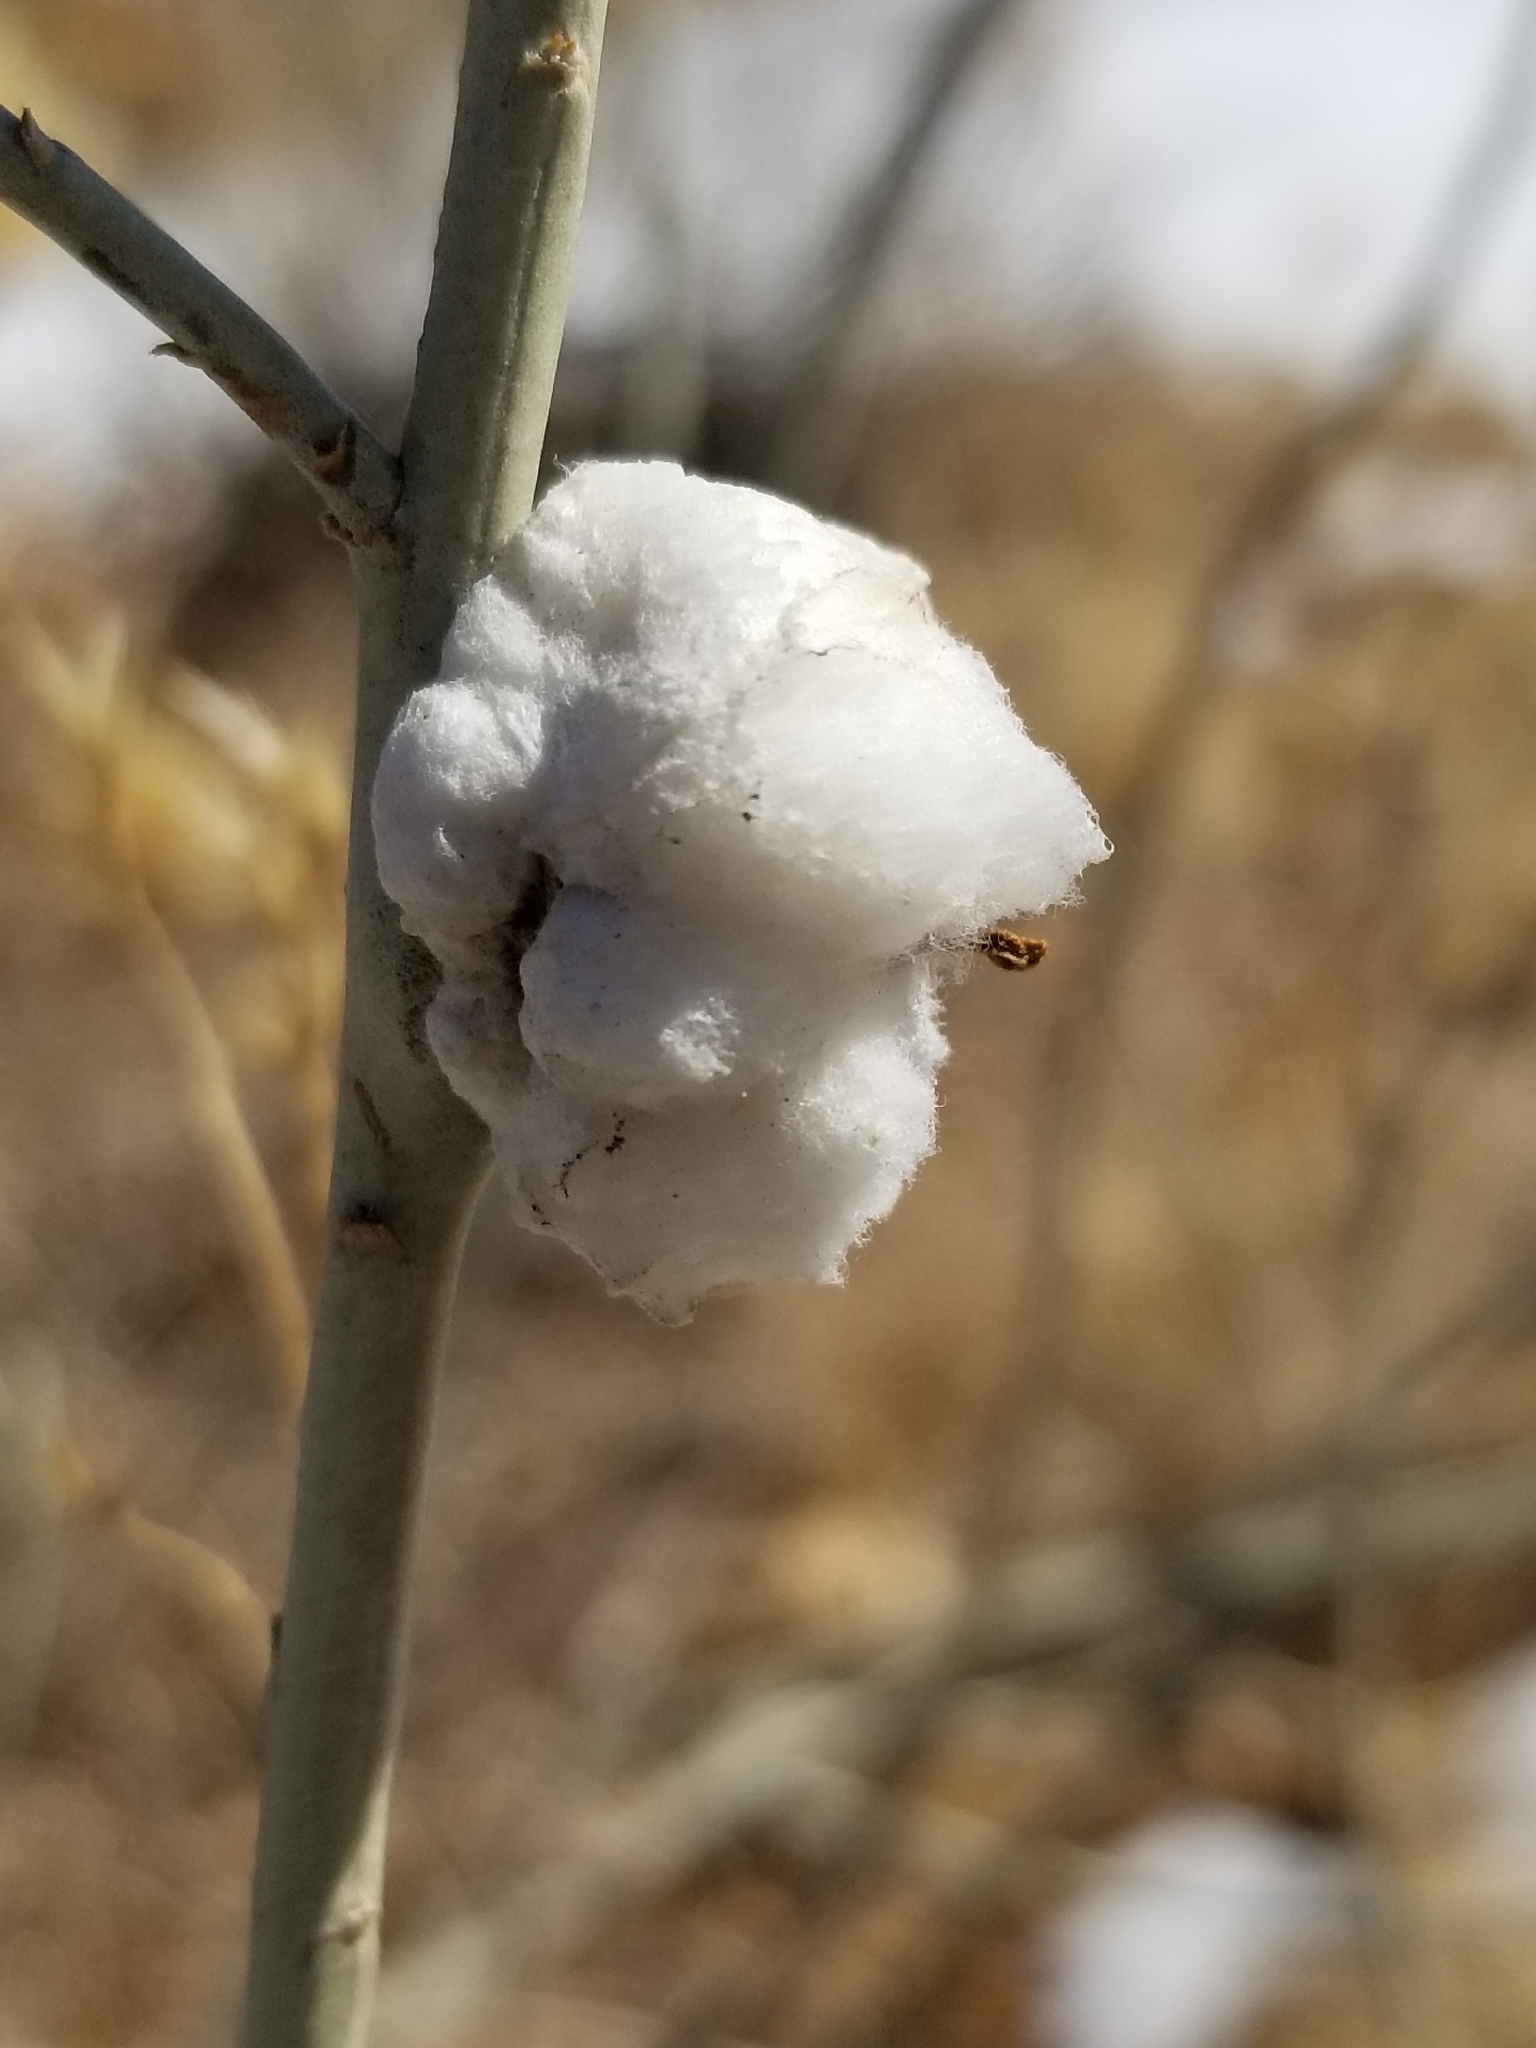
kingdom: Animalia
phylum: Arthropoda
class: Insecta
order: Diptera
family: Tephritidae
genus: Aciurina
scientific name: Aciurina bigeloviae
